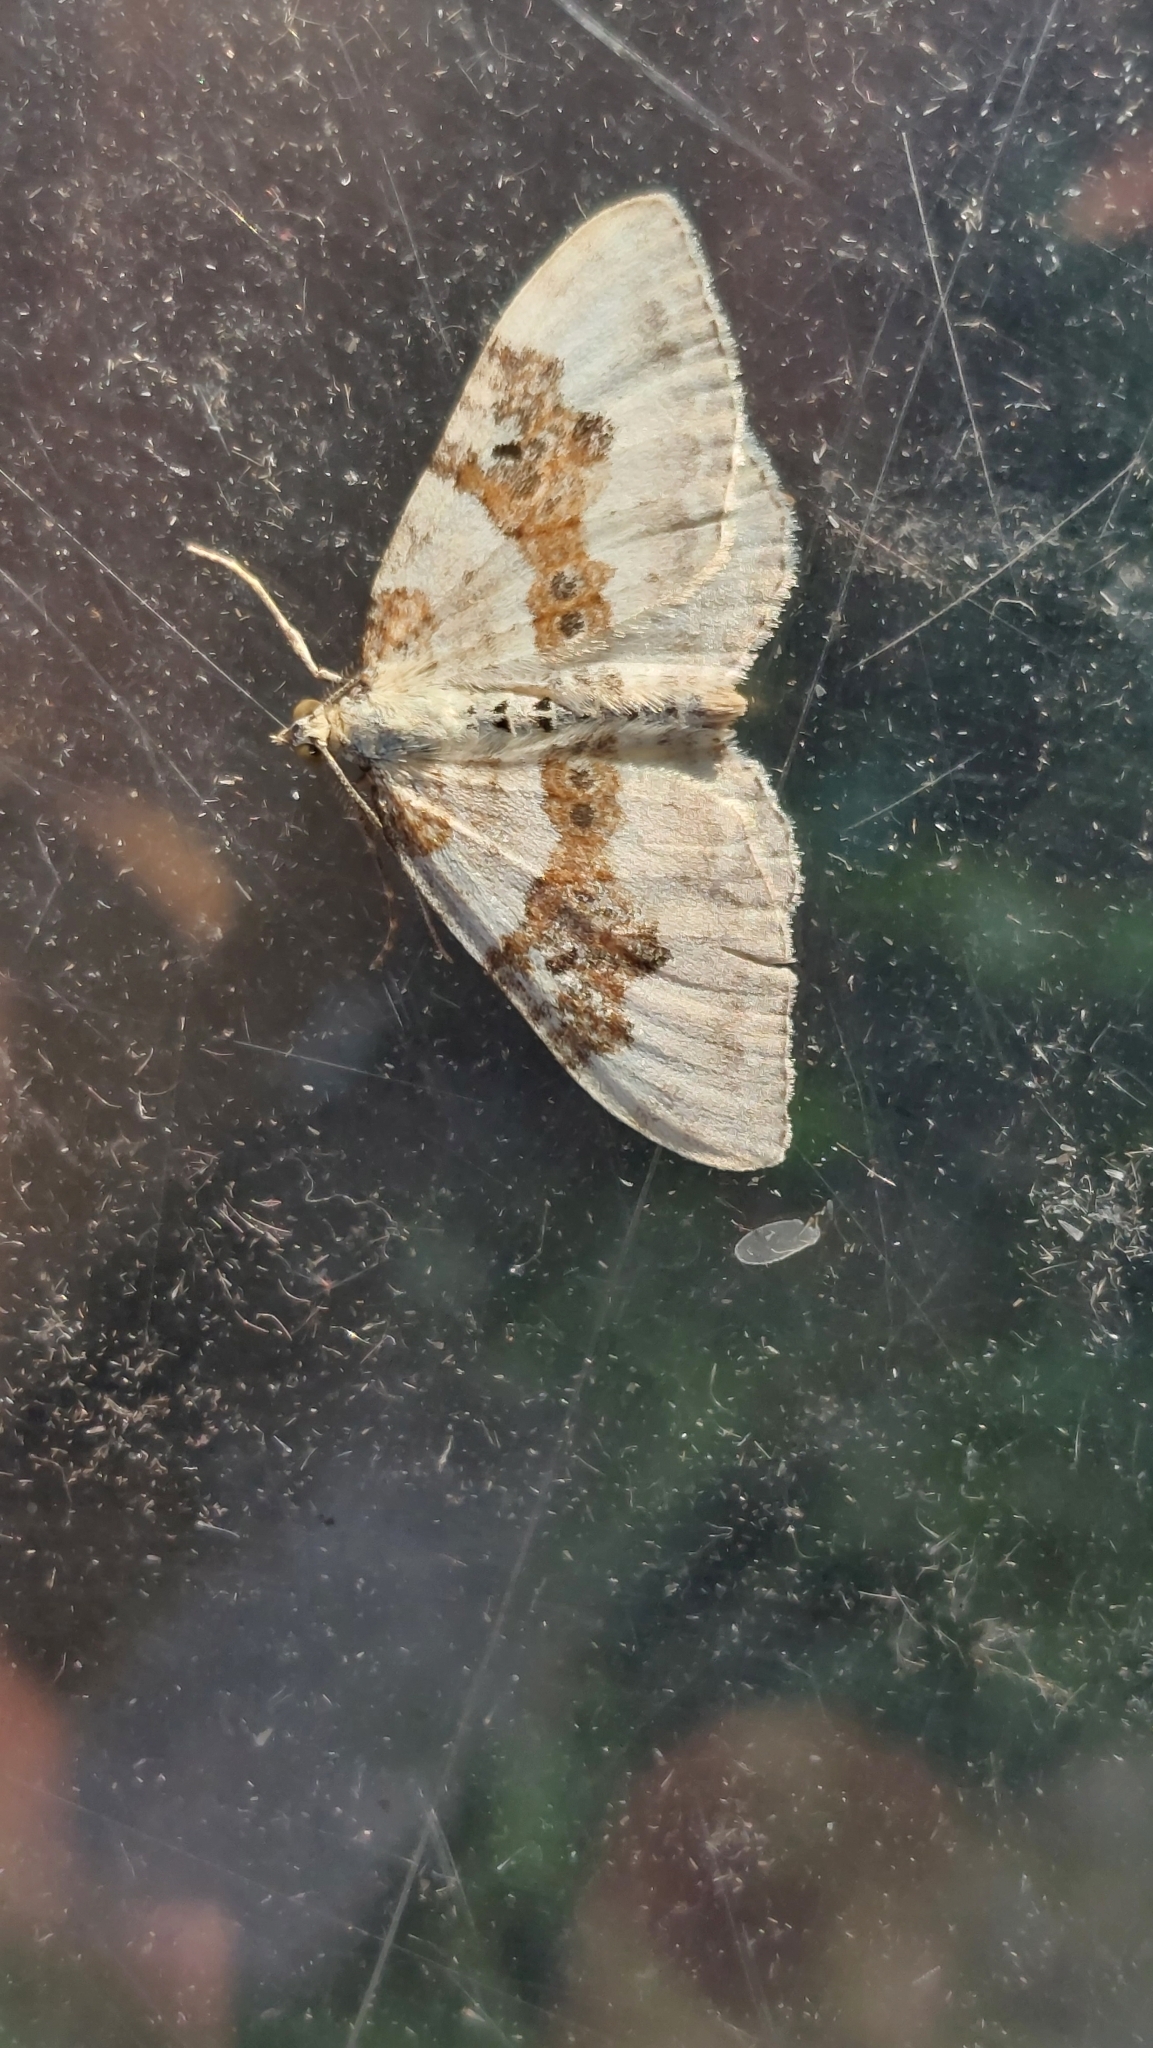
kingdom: Animalia
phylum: Arthropoda
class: Insecta
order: Lepidoptera
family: Geometridae
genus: Xanthorhoe
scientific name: Xanthorhoe montanata
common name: Silver-ground carpet
